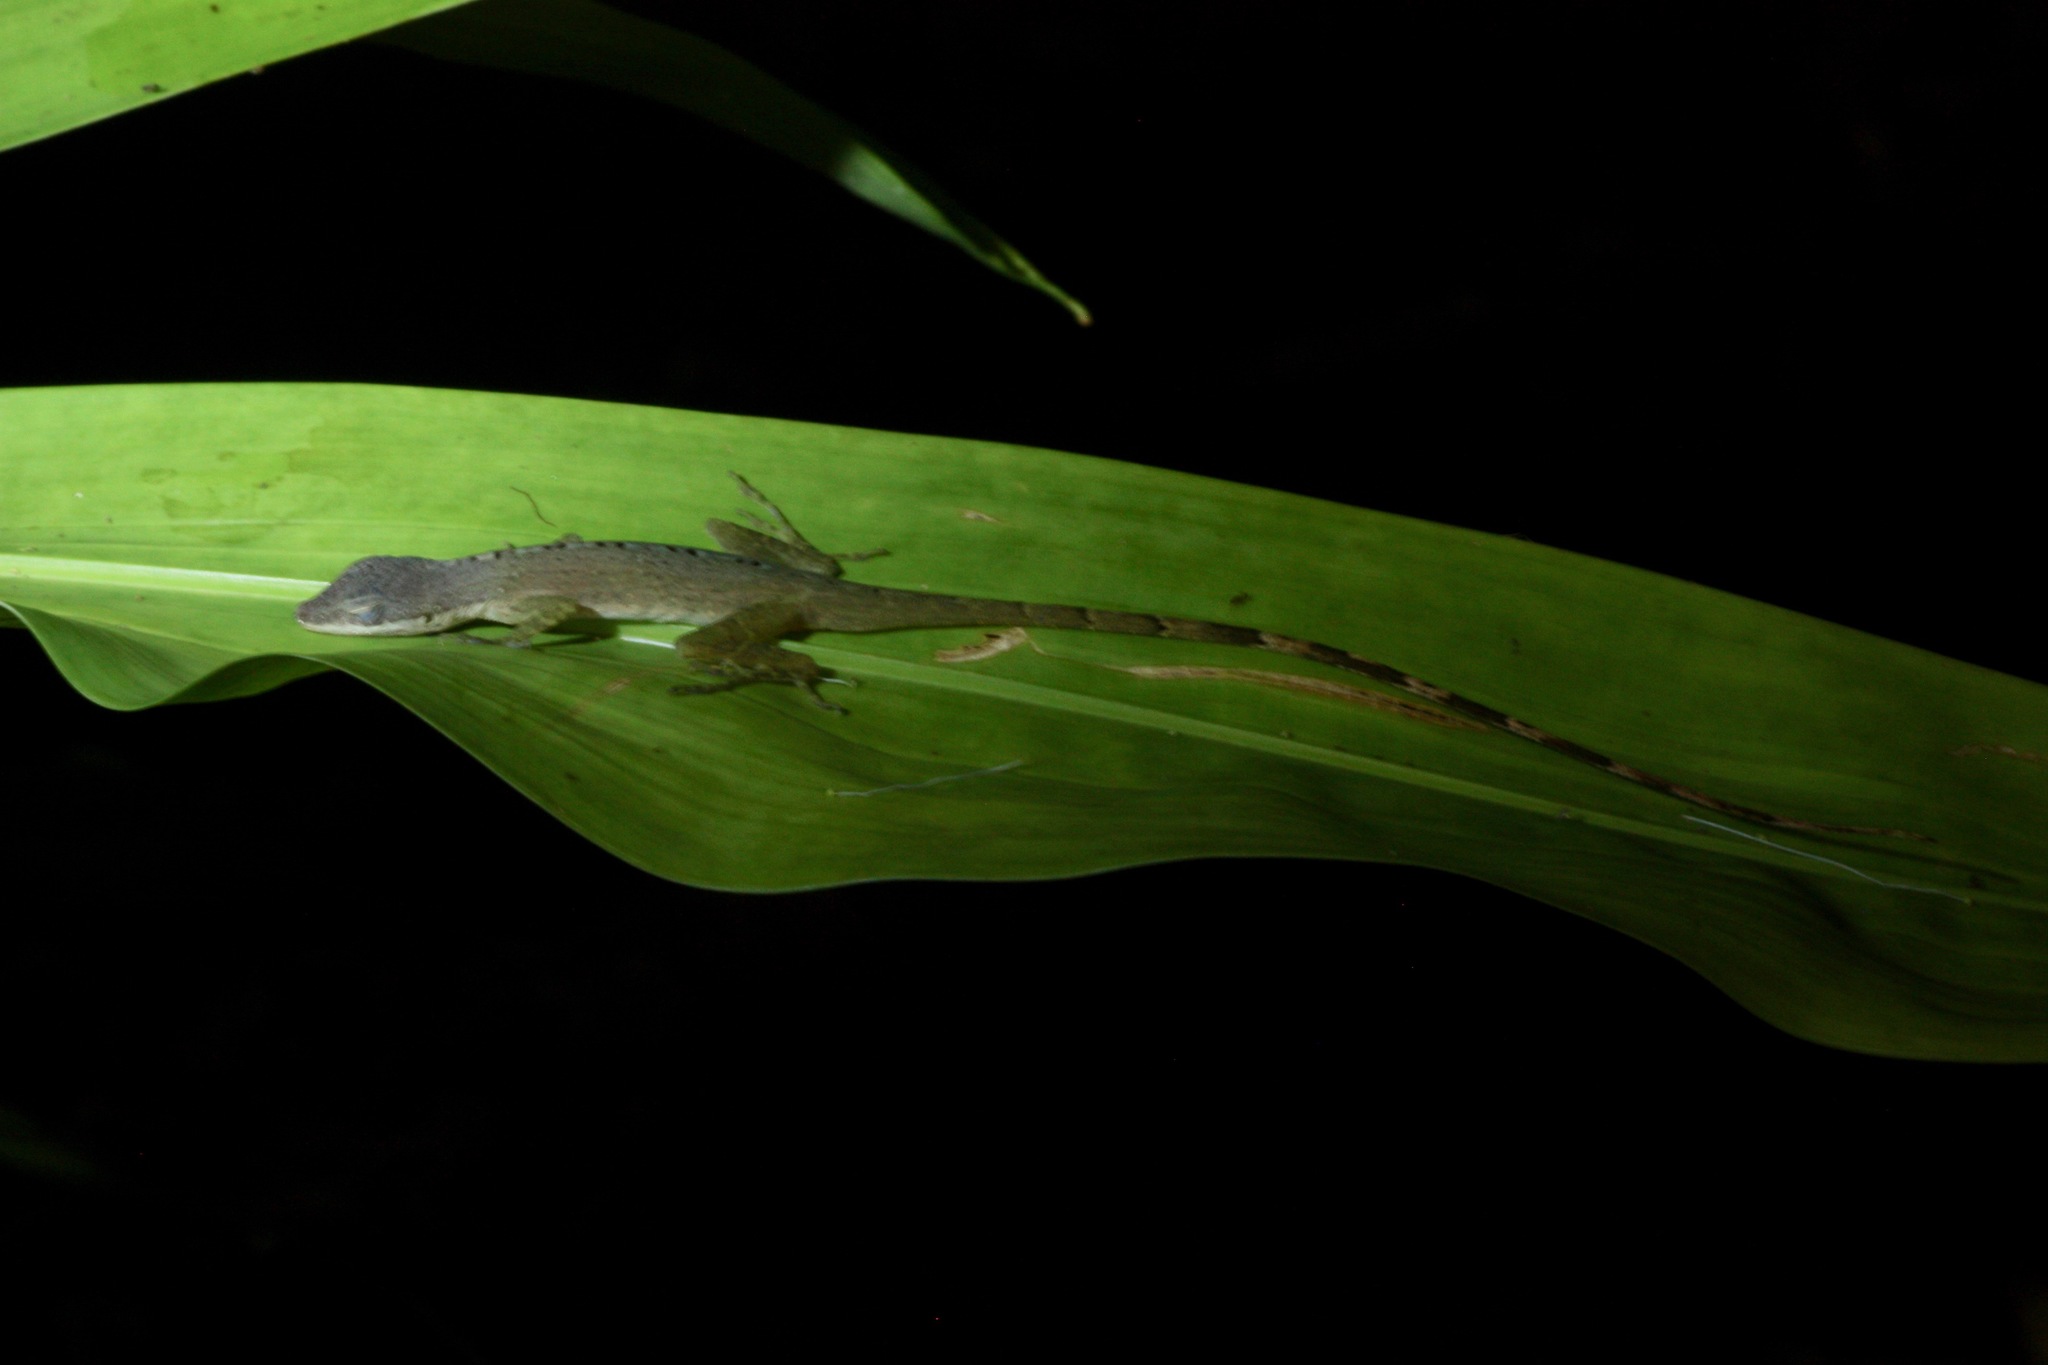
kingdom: Animalia
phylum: Chordata
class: Squamata
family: Dactyloidae
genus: Anolis
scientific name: Anolis limifrons
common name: Border anole
